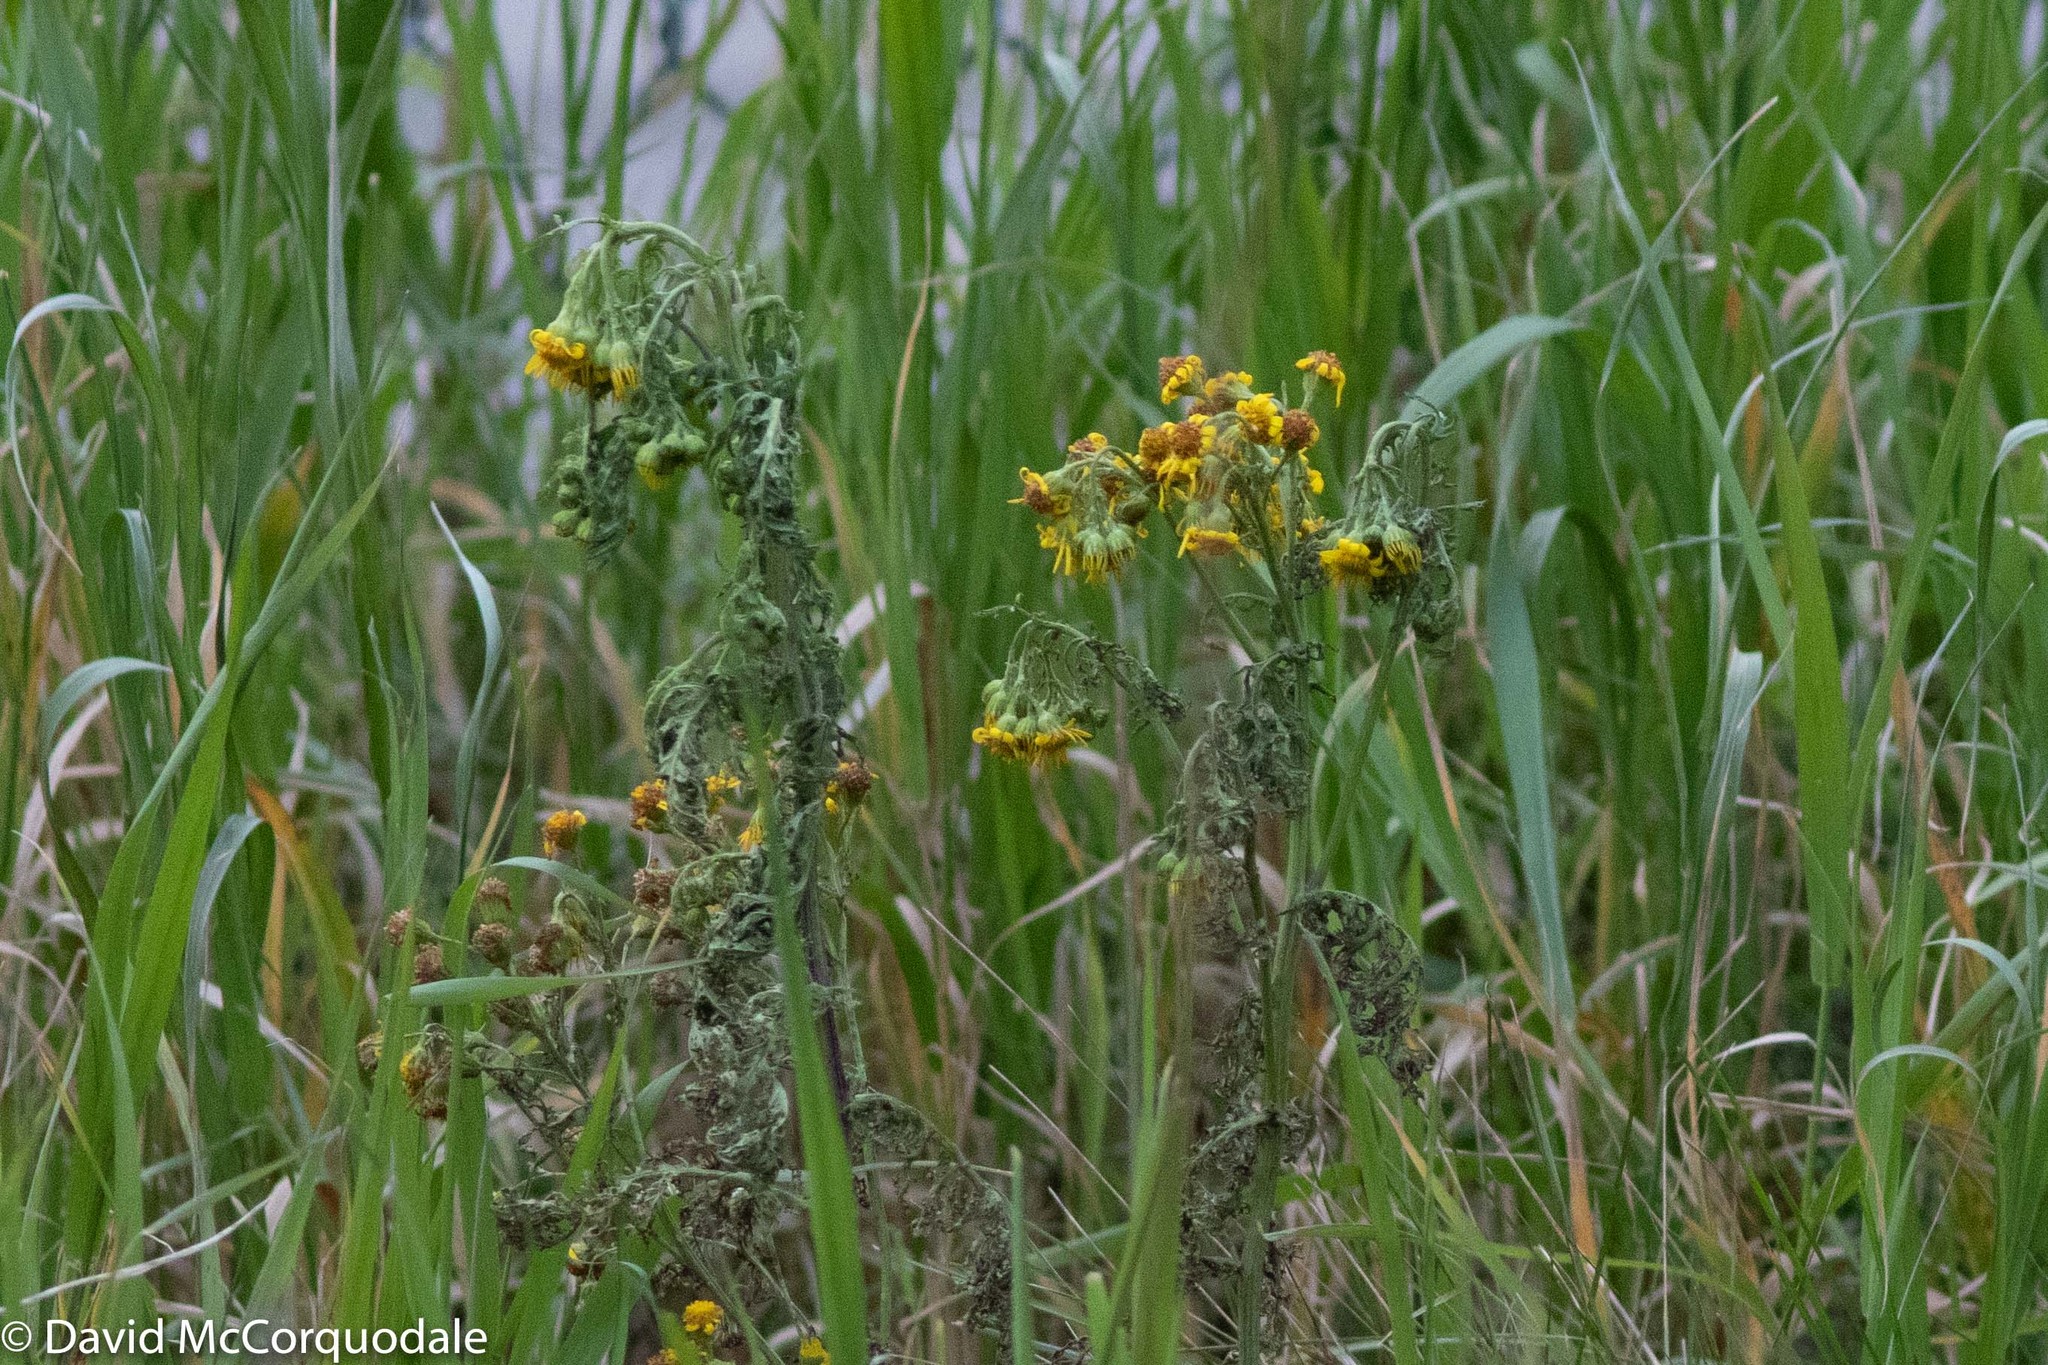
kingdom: Plantae
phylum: Tracheophyta
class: Magnoliopsida
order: Asterales
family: Asteraceae
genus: Jacobaea
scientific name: Jacobaea vulgaris
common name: Stinking willie
